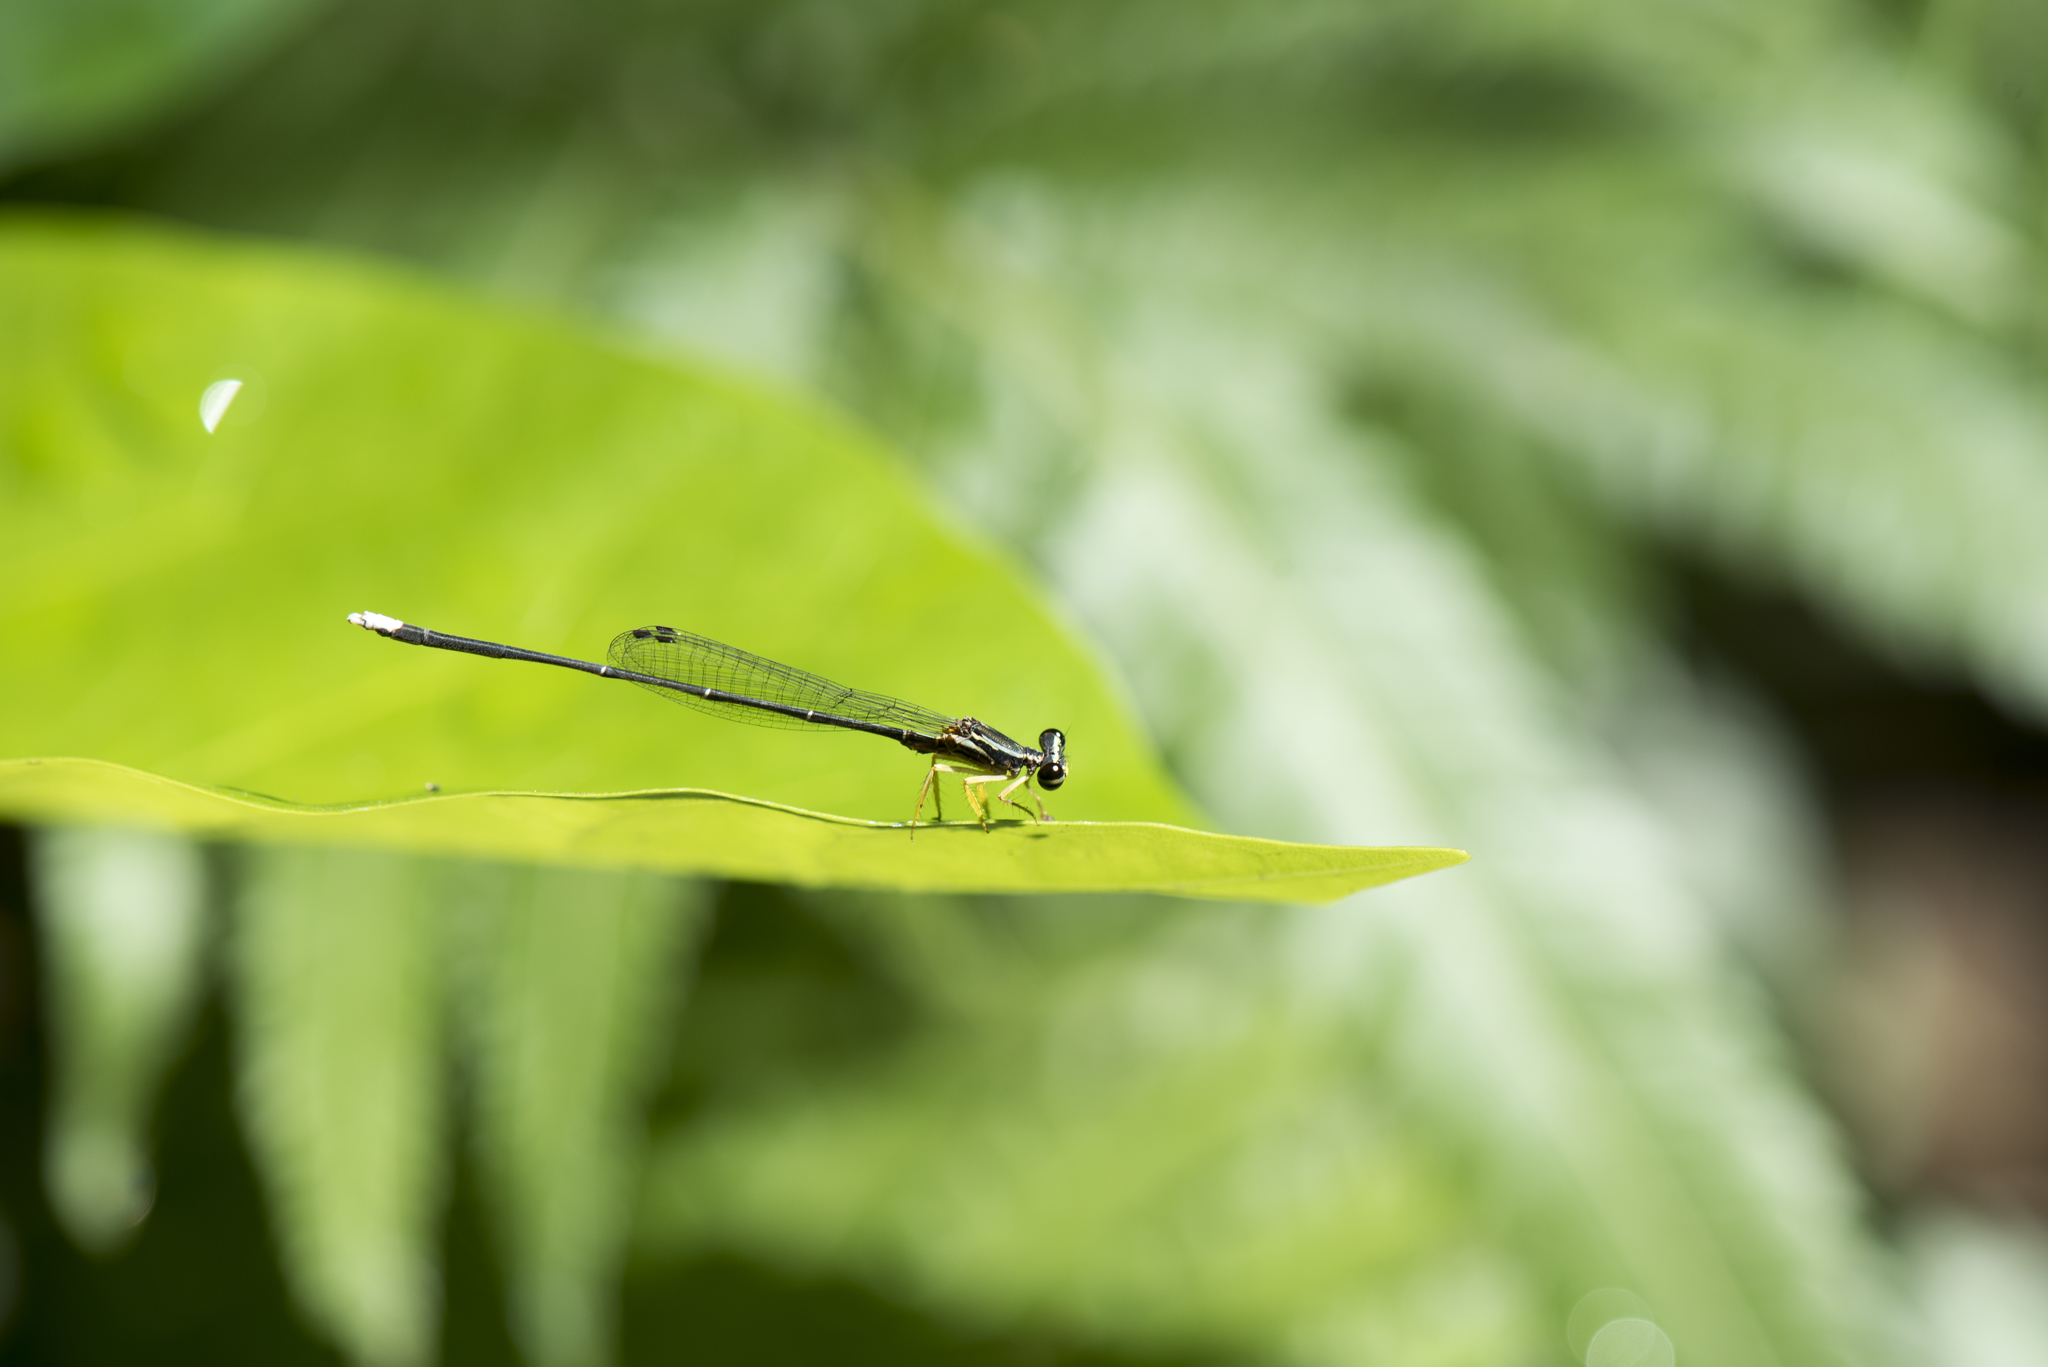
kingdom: Animalia
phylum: Arthropoda
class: Insecta
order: Odonata
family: Platycnemididae
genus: Copera
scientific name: Copera marginipes
